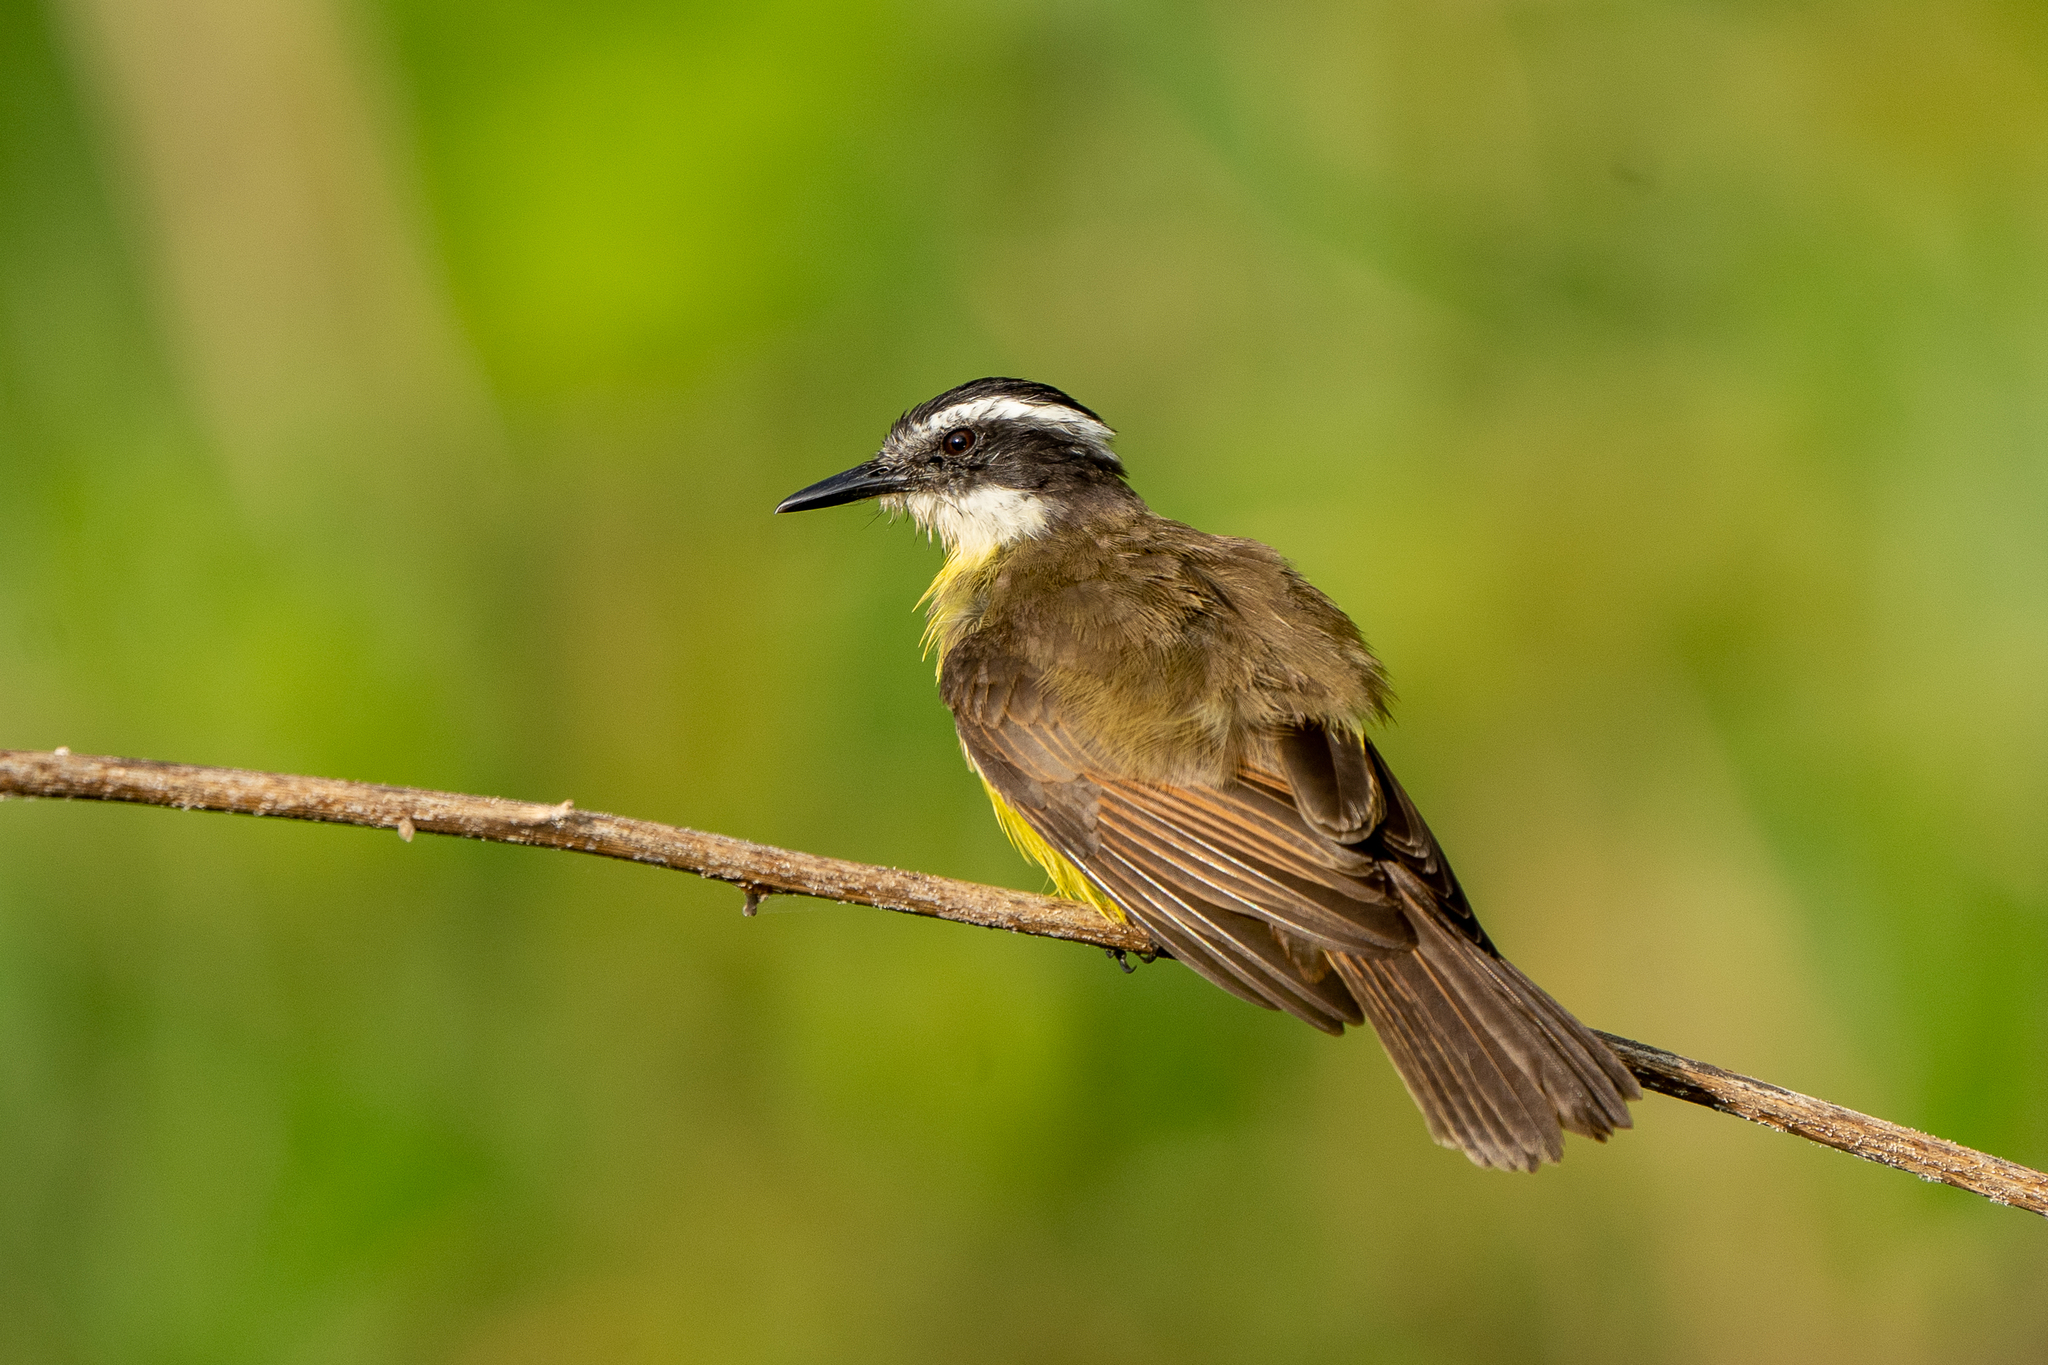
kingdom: Animalia
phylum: Chordata
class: Aves
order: Passeriformes
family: Tyrannidae
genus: Pitangus
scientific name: Pitangus lictor
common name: Lesser kiskadee
